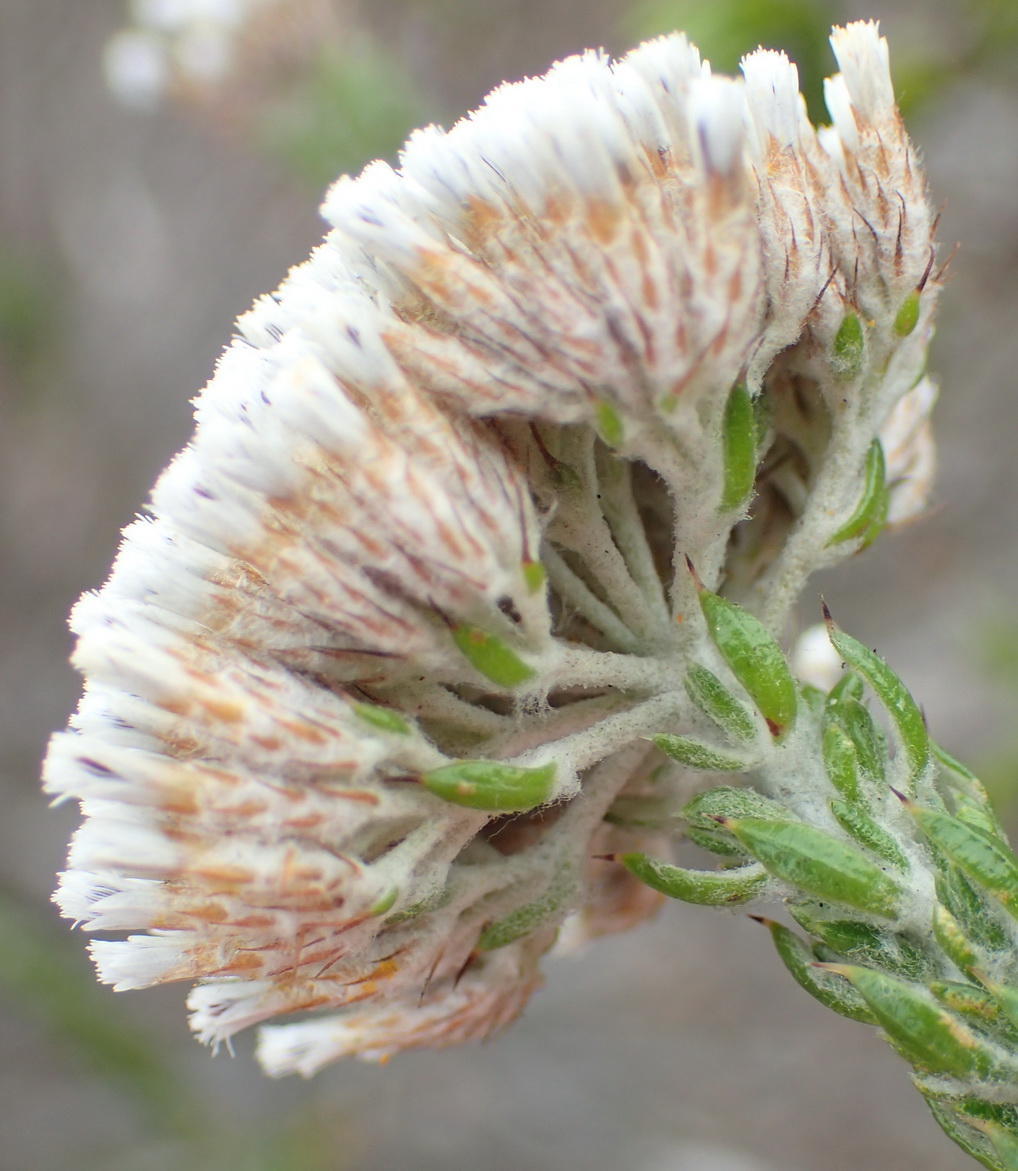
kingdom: Plantae
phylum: Tracheophyta
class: Magnoliopsida
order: Asterales
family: Asteraceae
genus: Metalasia
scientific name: Metalasia pungens
